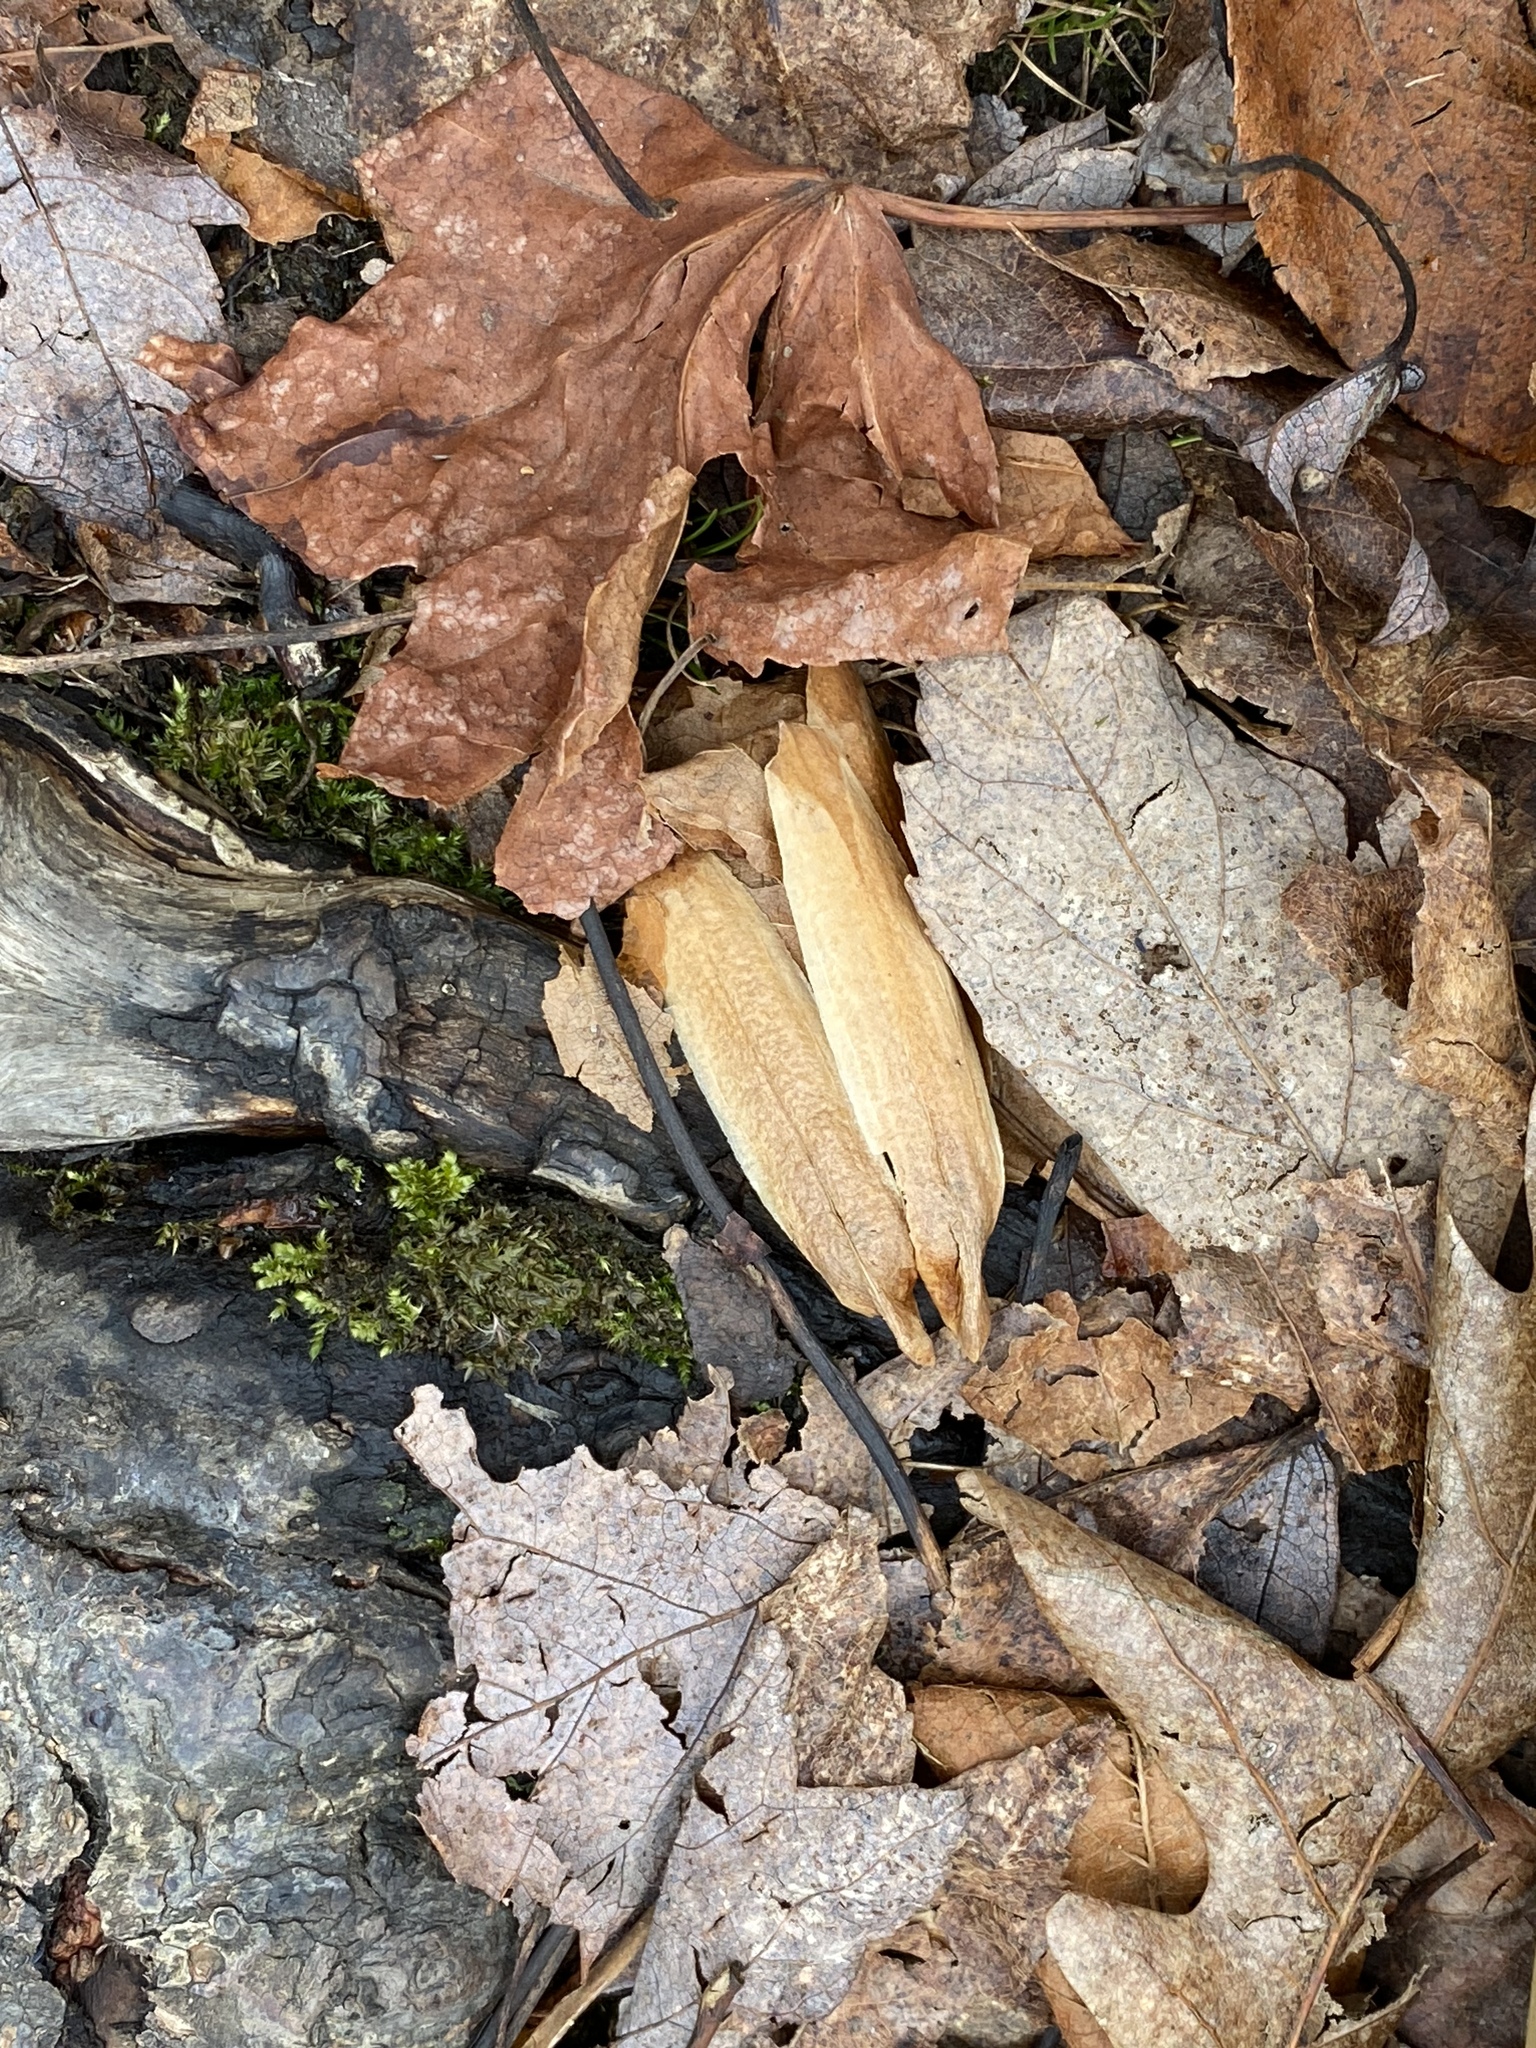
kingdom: Plantae
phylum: Tracheophyta
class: Magnoliopsida
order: Magnoliales
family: Magnoliaceae
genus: Liriodendron
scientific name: Liriodendron tulipifera
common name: Tulip tree
